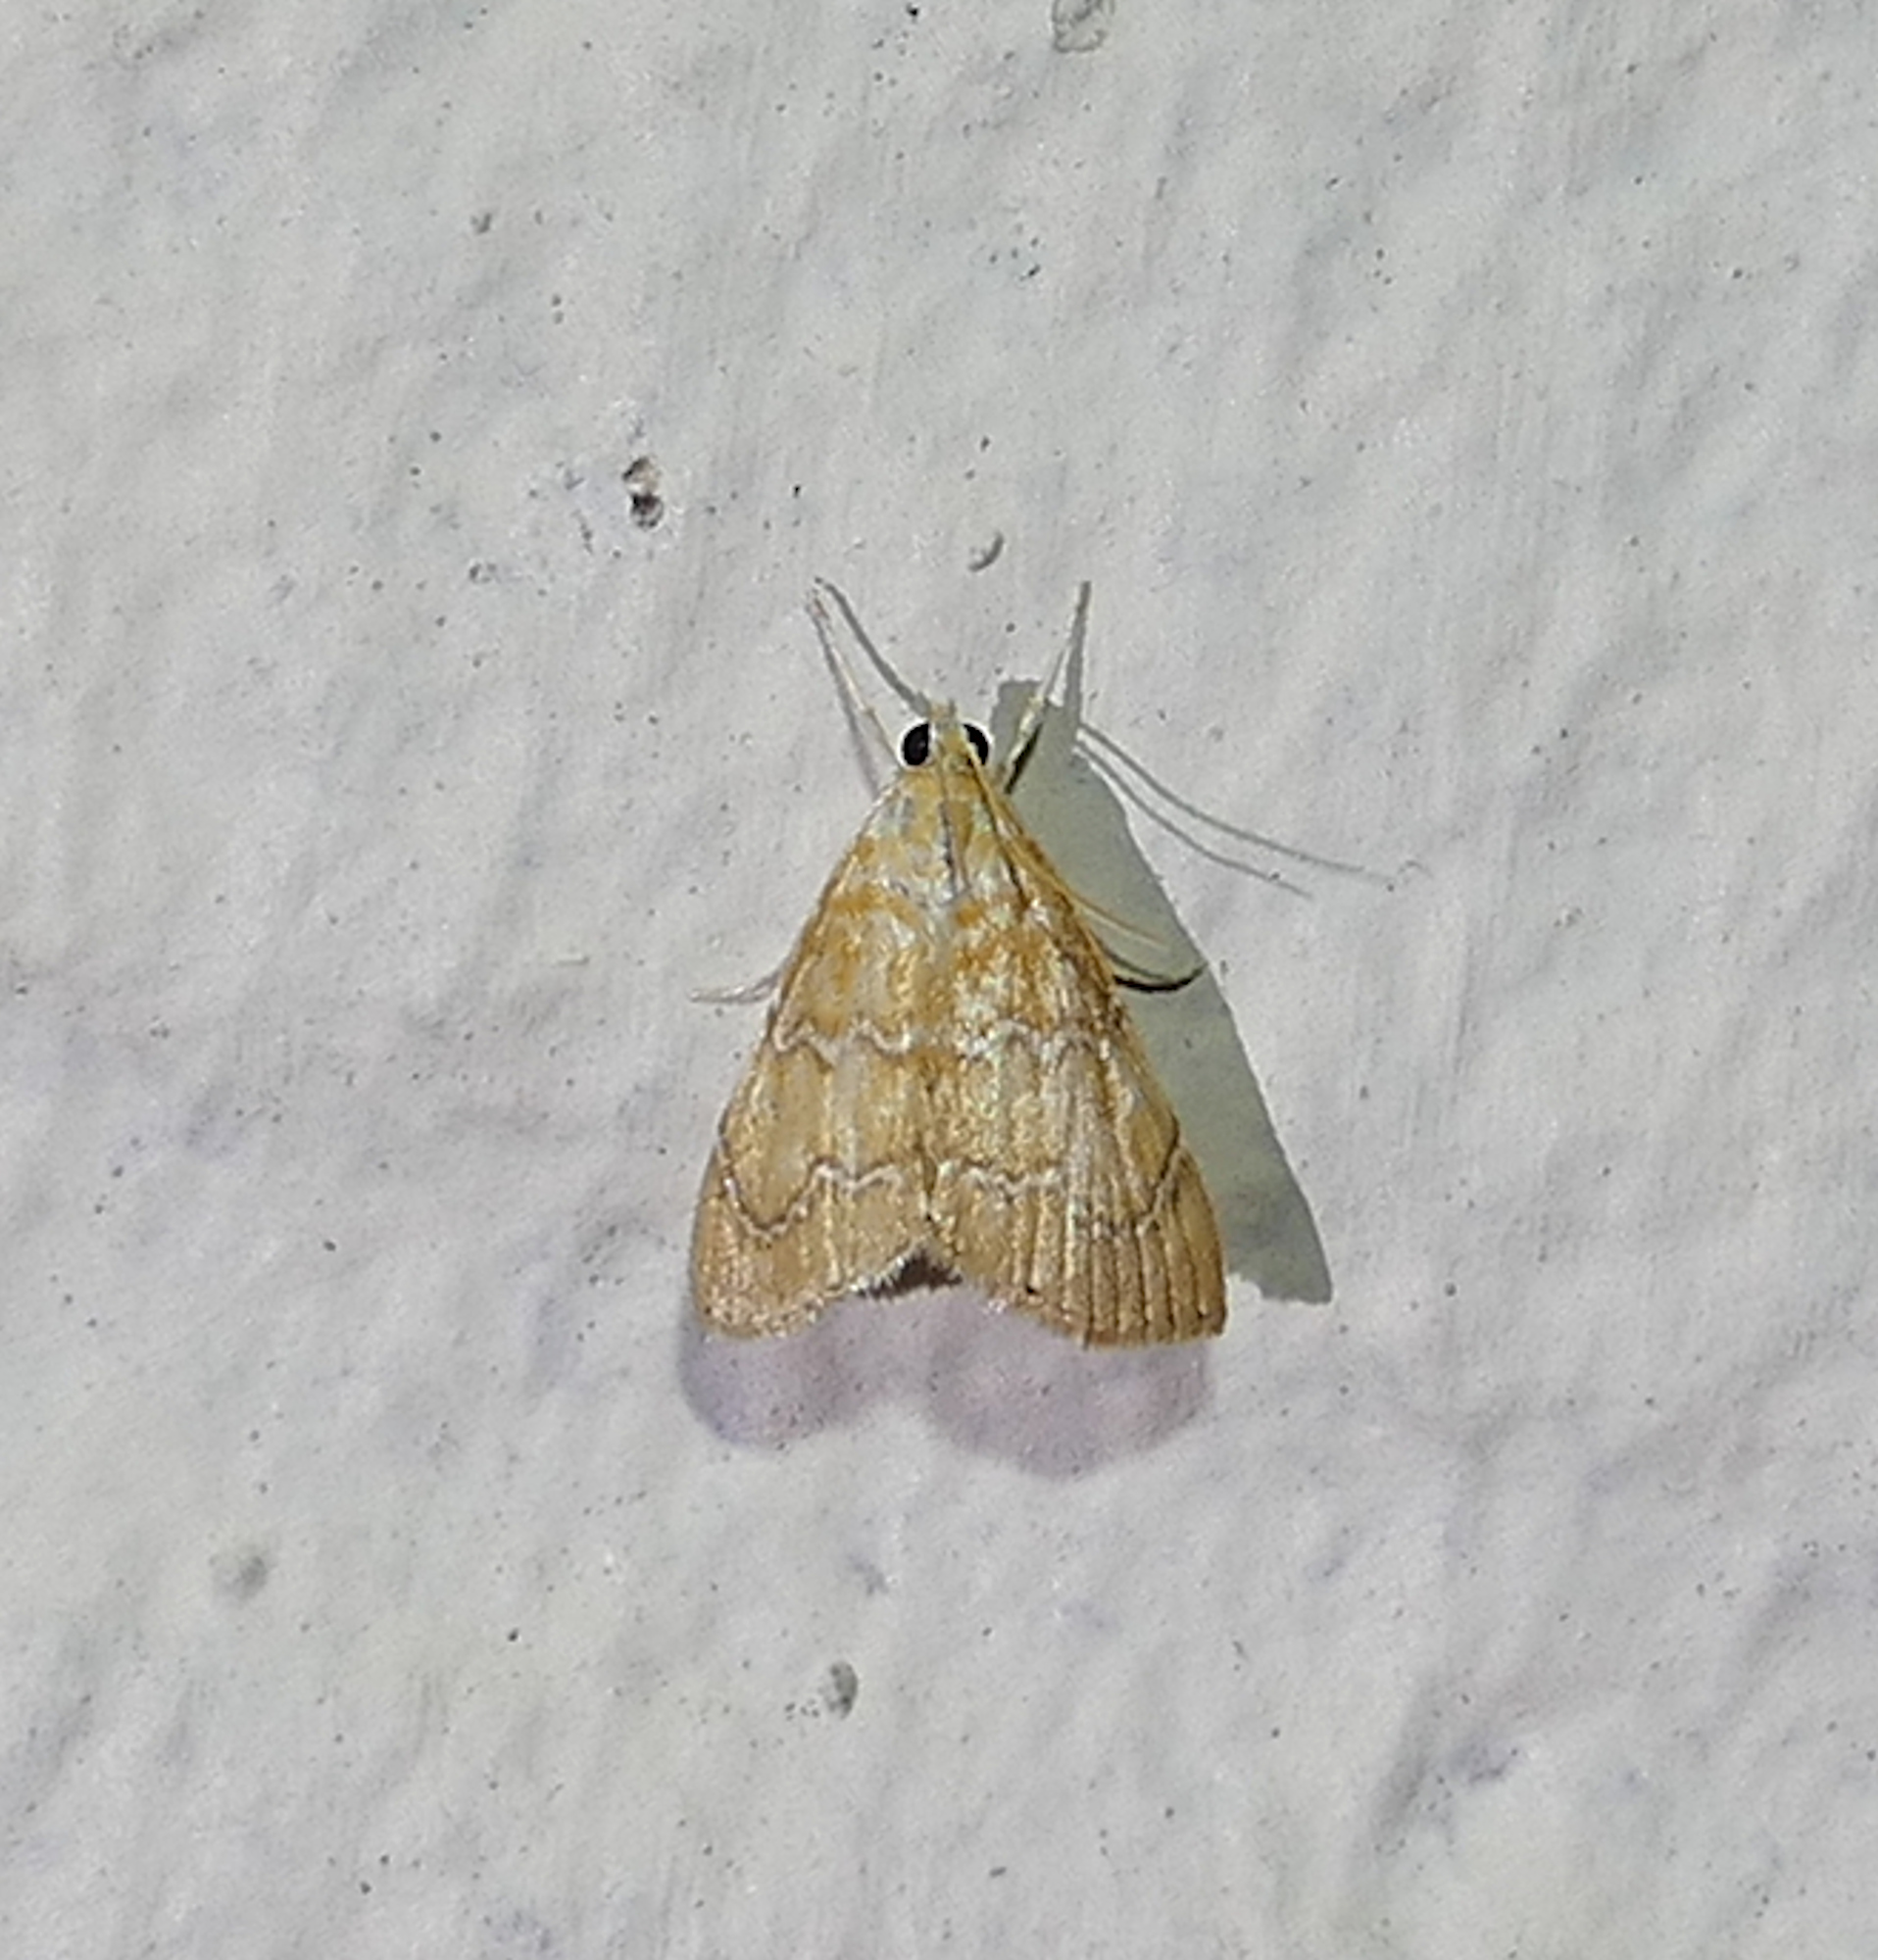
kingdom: Animalia
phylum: Arthropoda
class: Insecta
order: Lepidoptera
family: Crambidae
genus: Glaphyria
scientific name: Glaphyria sesquistrialis
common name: White-roped glaphyria
